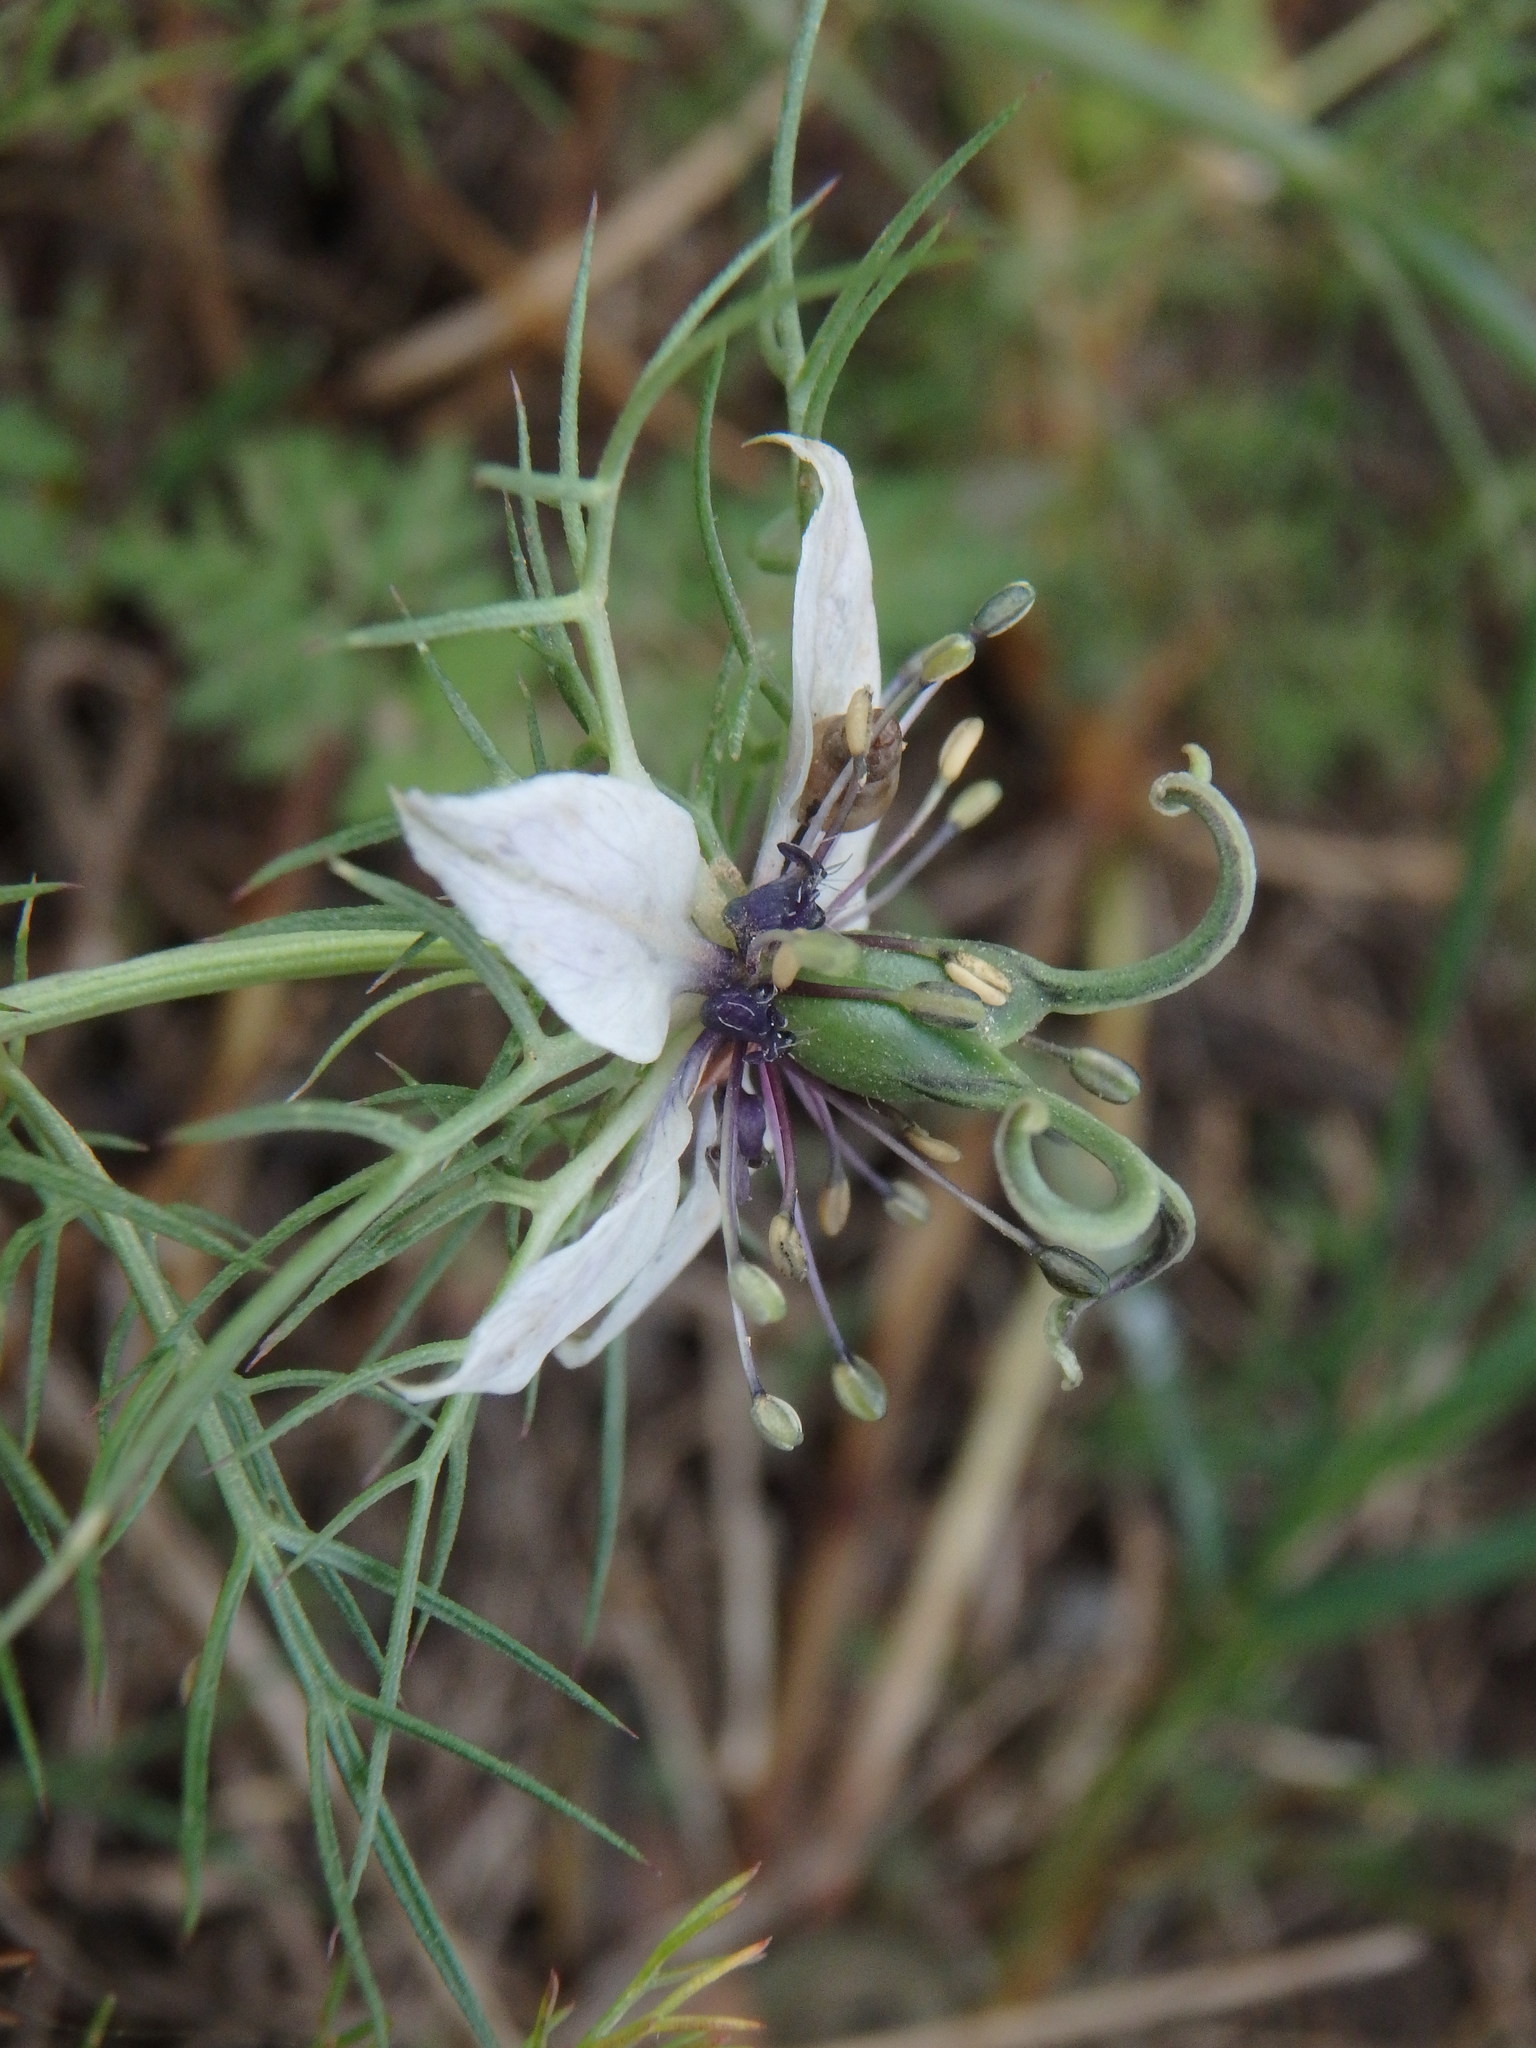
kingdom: Plantae
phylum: Tracheophyta
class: Magnoliopsida
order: Ranunculales
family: Ranunculaceae
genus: Nigella
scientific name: Nigella damascena
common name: Love-in-a-mist
